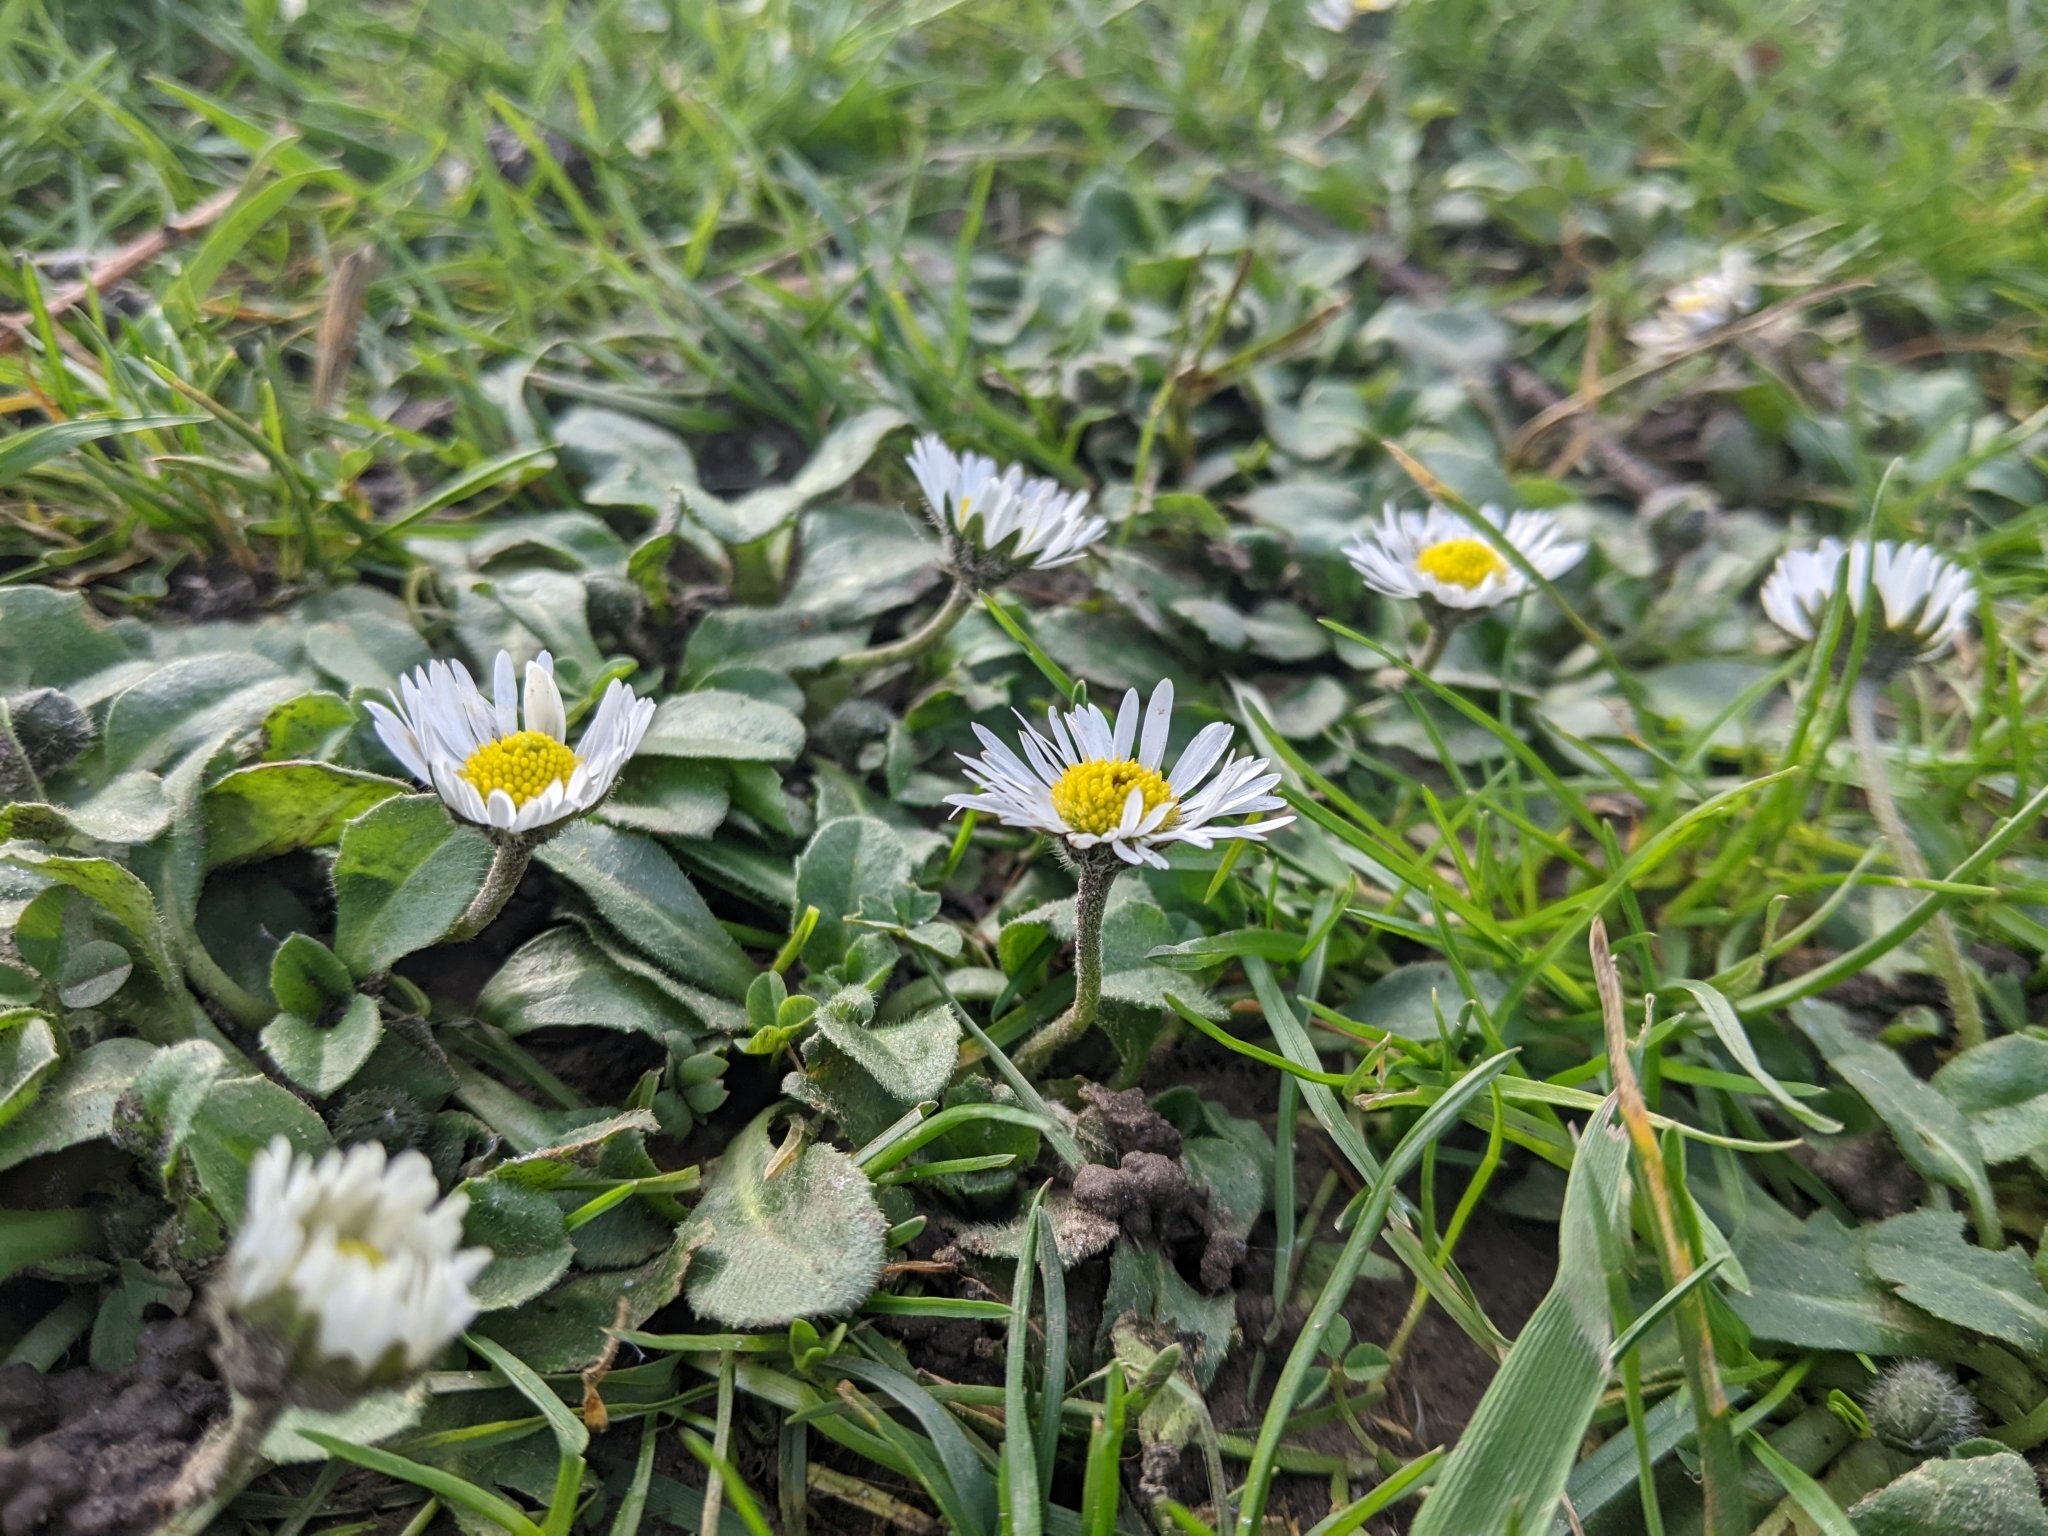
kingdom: Plantae
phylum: Tracheophyta
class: Magnoliopsida
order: Asterales
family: Asteraceae
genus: Bellis
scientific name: Bellis perennis
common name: Lawndaisy
